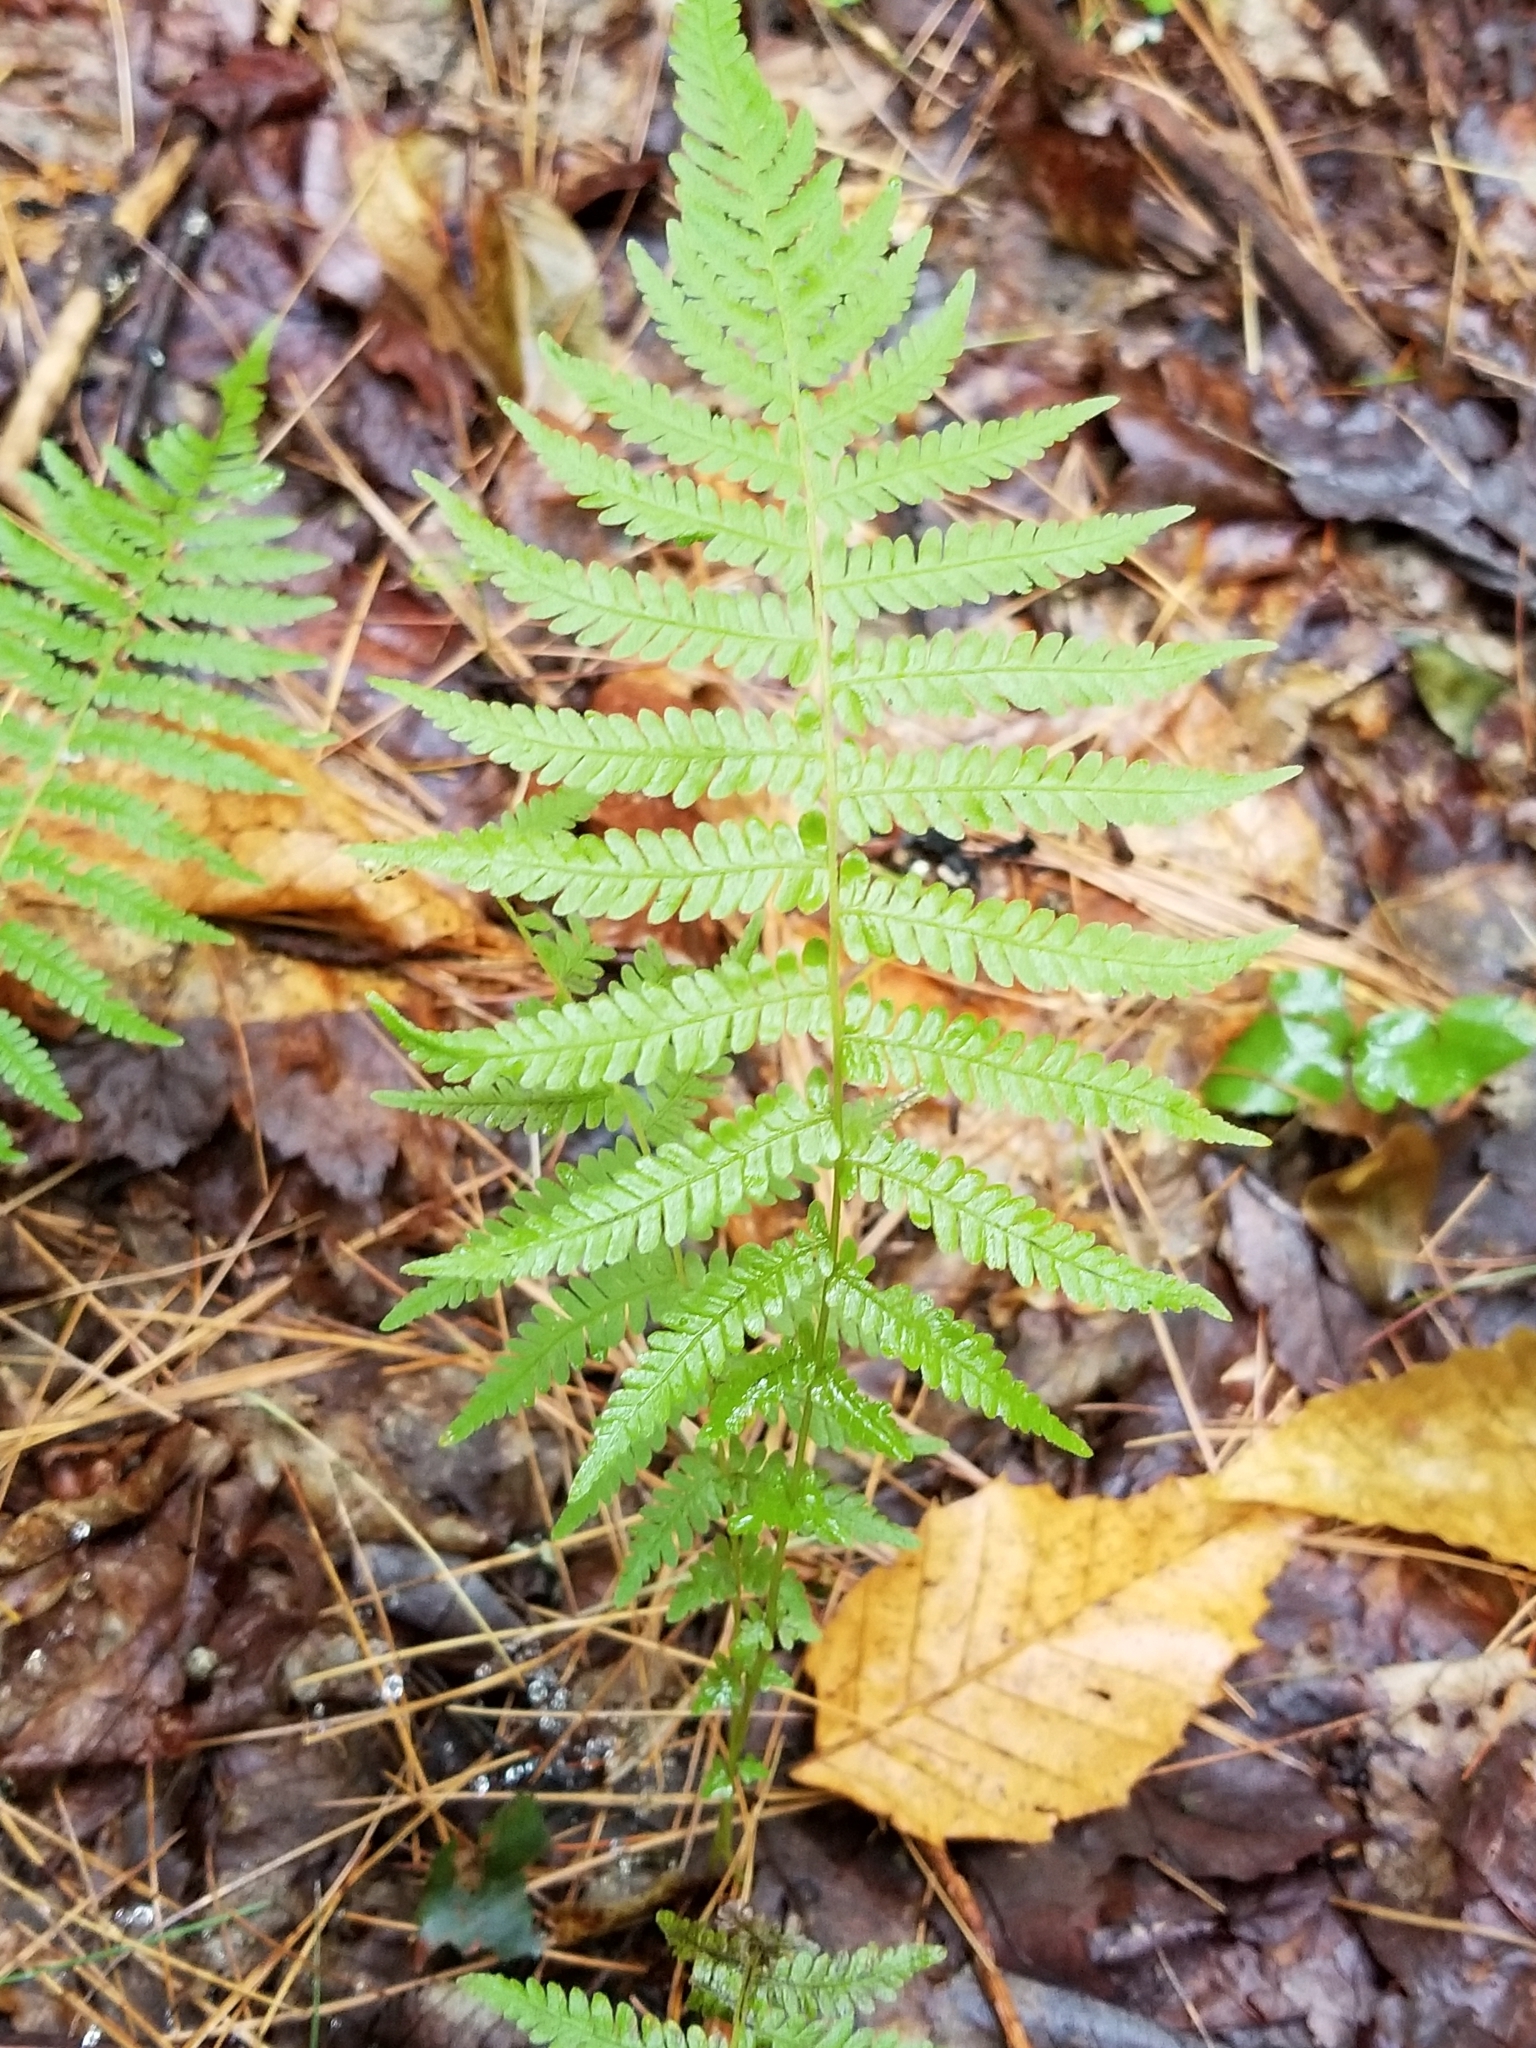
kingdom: Plantae
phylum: Tracheophyta
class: Polypodiopsida
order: Polypodiales
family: Thelypteridaceae
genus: Amauropelta
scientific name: Amauropelta noveboracensis
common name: New york fern
